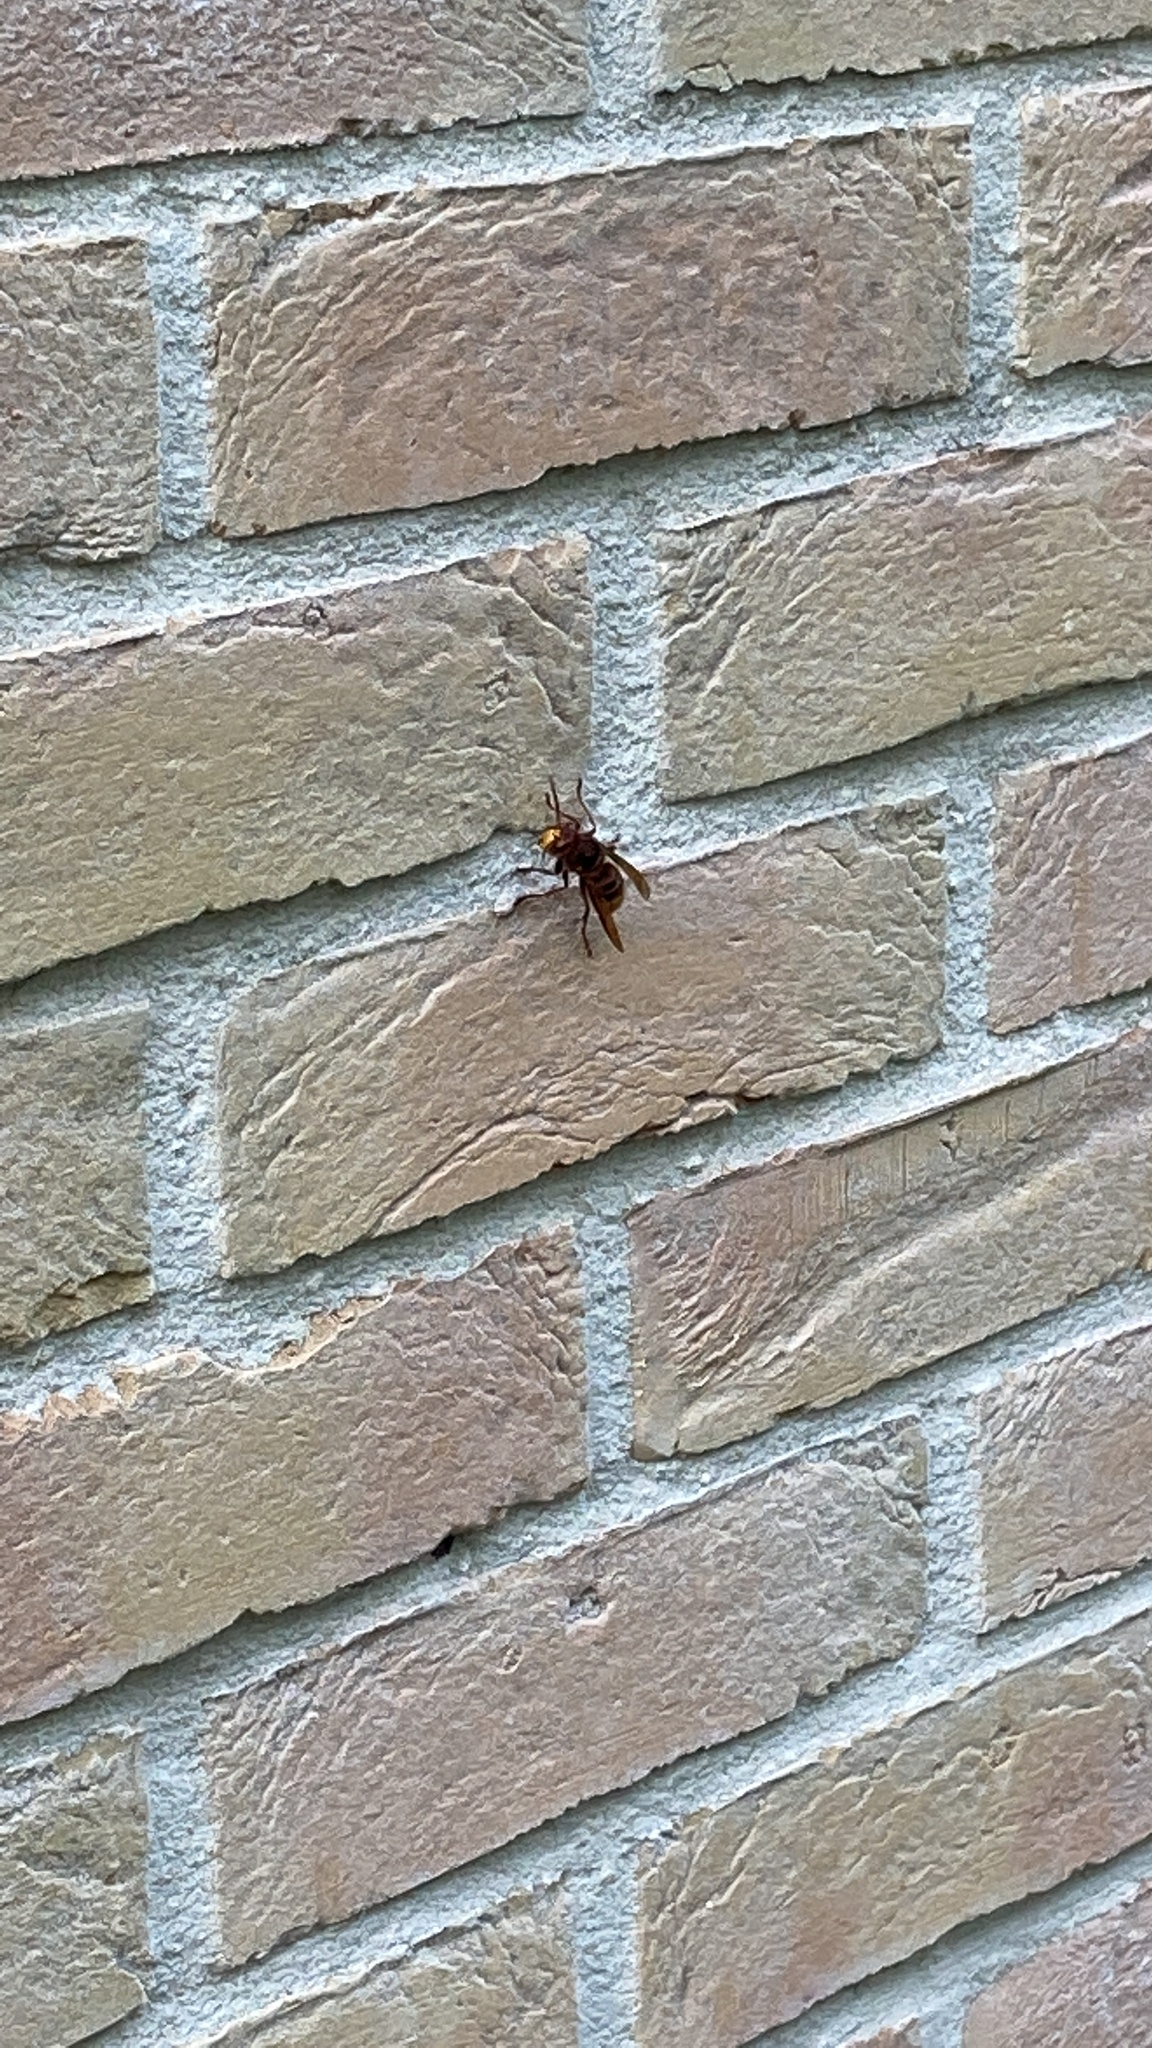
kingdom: Animalia
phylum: Arthropoda
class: Insecta
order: Hymenoptera
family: Vespidae
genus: Vespa
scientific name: Vespa crabro
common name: Hornet
